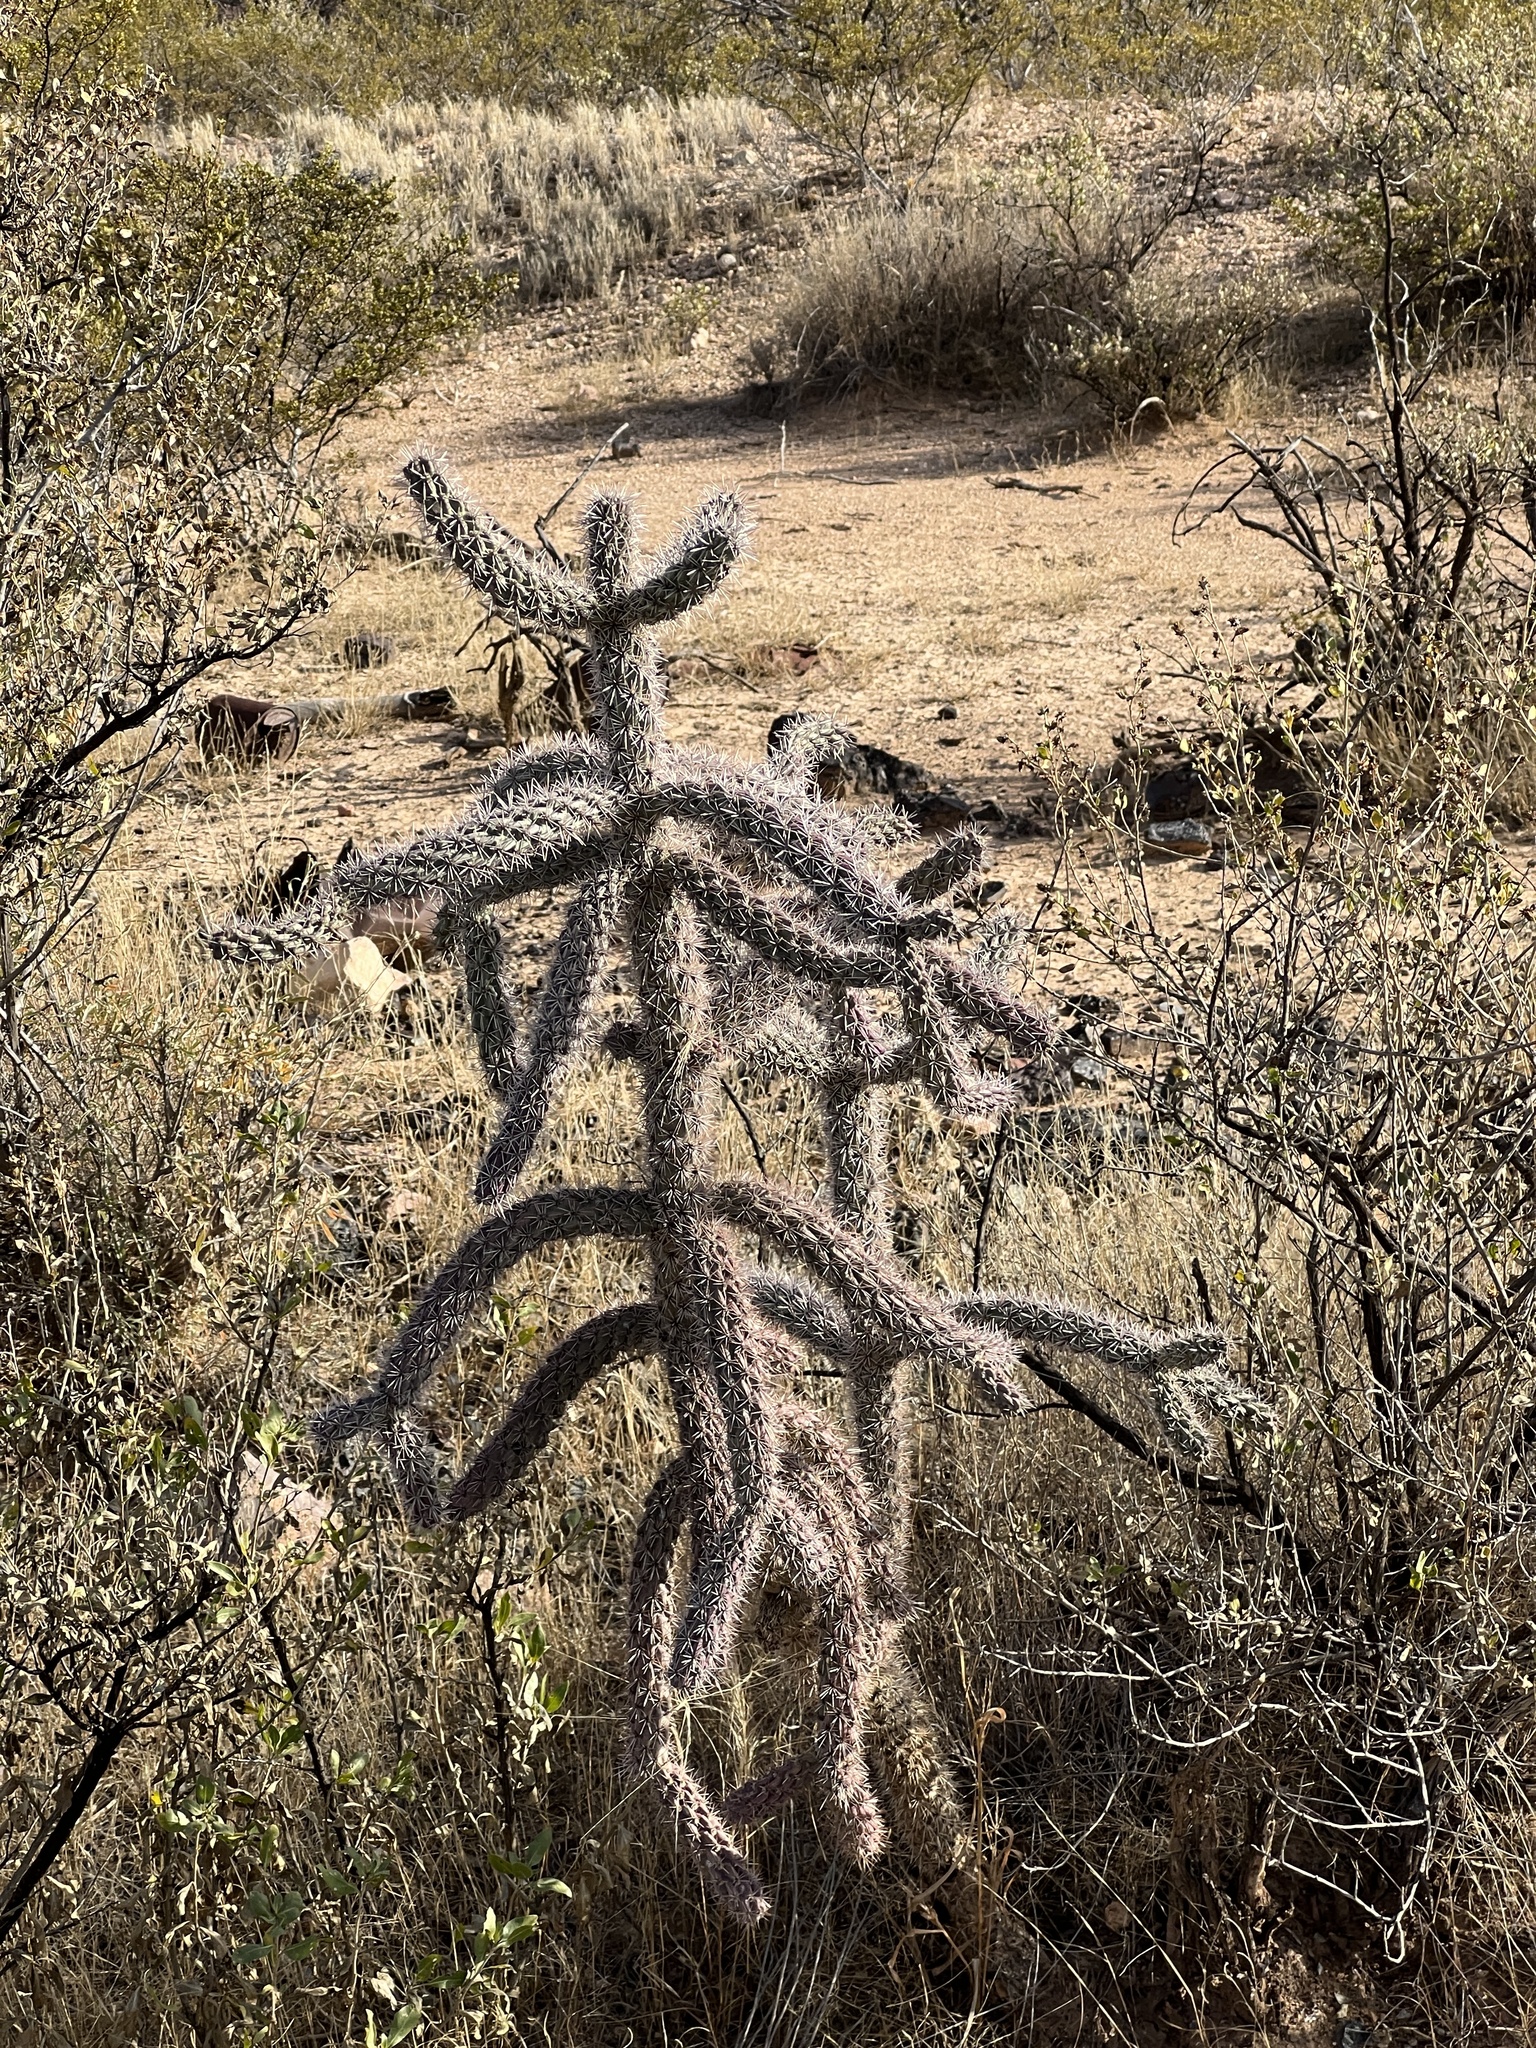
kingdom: Plantae
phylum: Tracheophyta
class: Magnoliopsida
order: Caryophyllales
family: Cactaceae
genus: Cylindropuntia
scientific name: Cylindropuntia imbricata
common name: Candelabrum cactus
